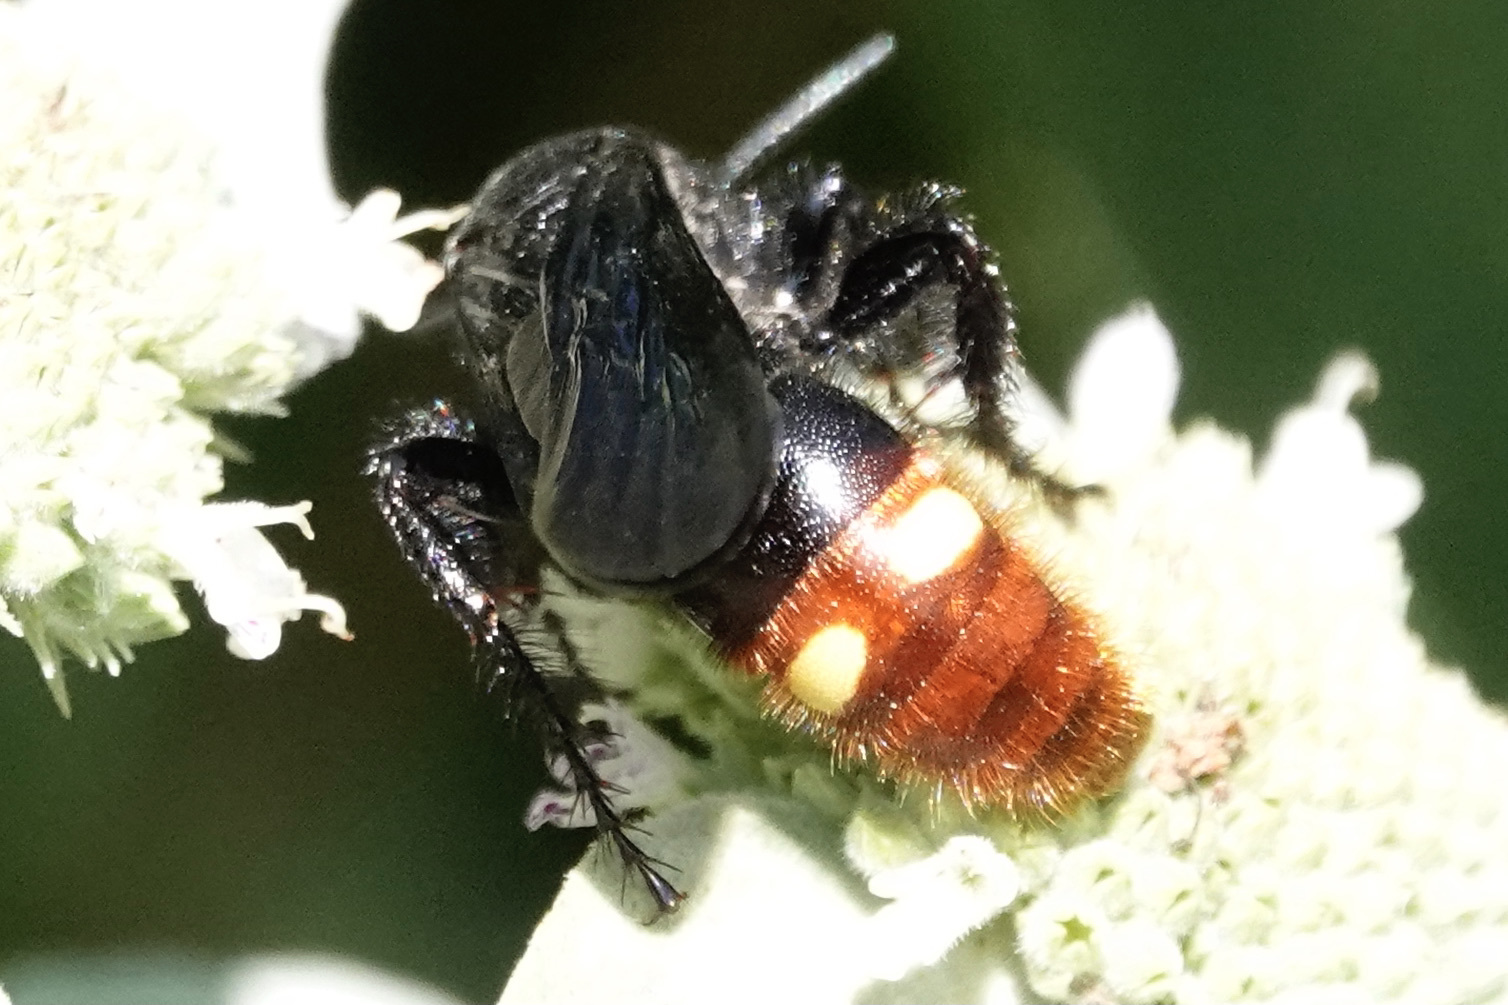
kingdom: Animalia
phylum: Arthropoda
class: Insecta
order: Hymenoptera
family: Scoliidae
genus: Scolia
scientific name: Scolia dubia
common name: Blue-winged scoliid wasp
